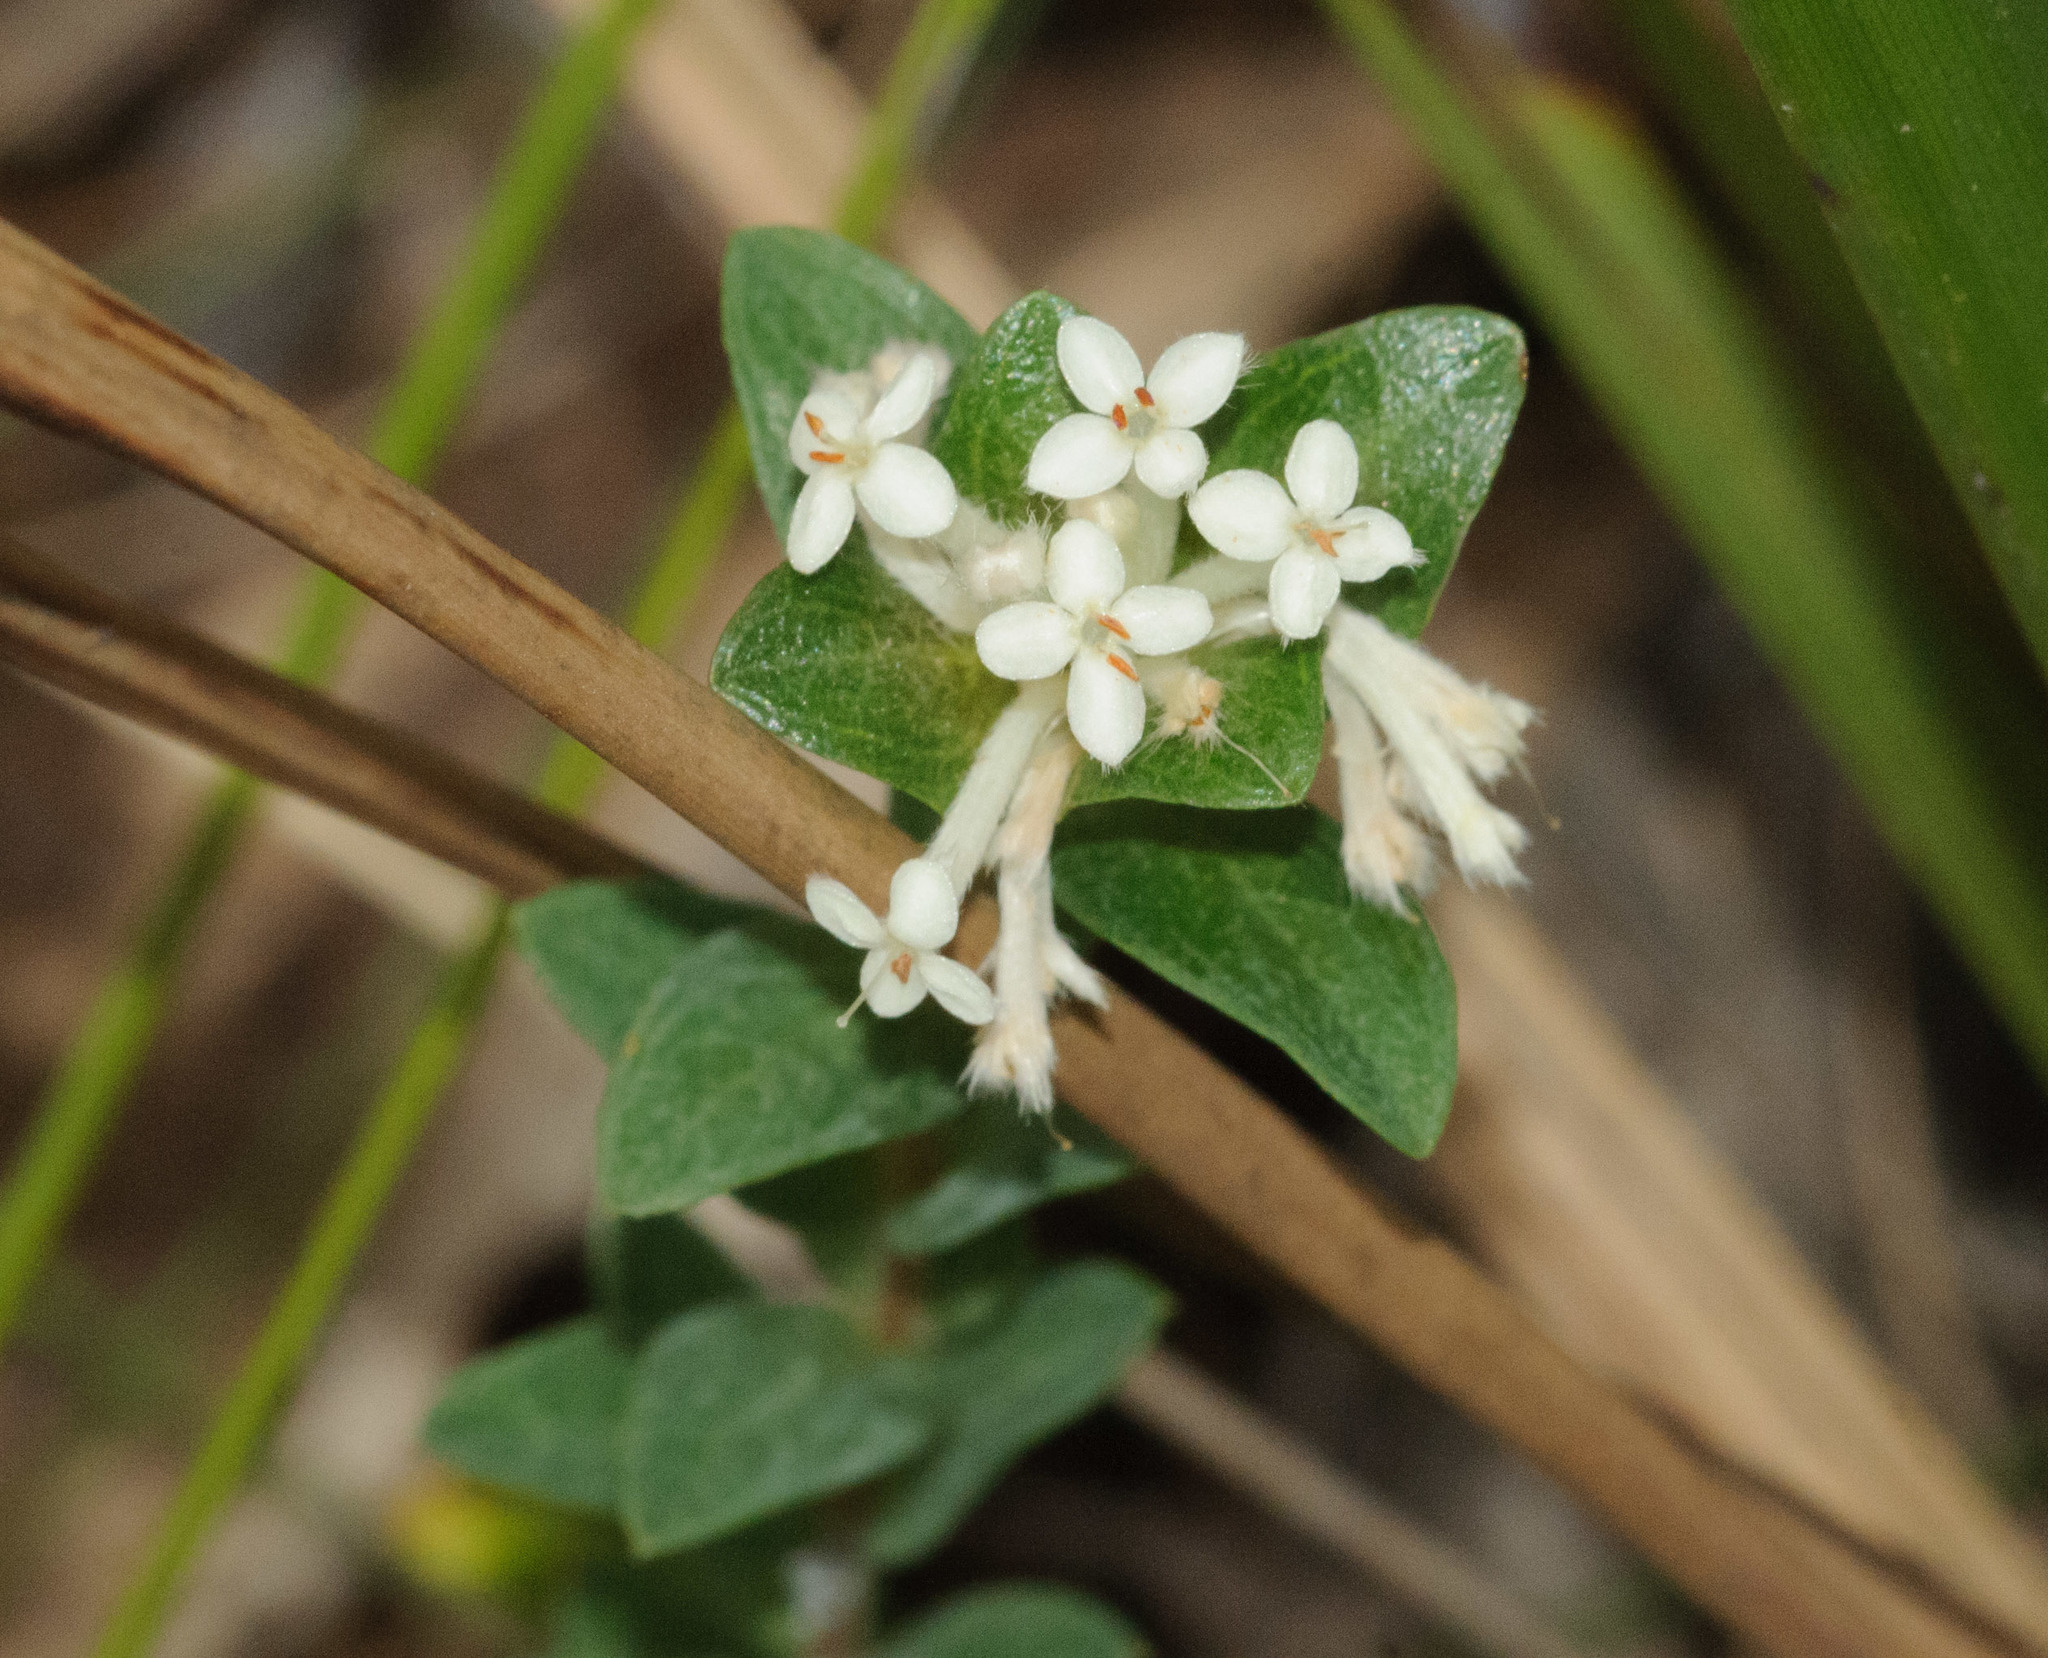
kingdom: Plantae
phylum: Tracheophyta
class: Magnoliopsida
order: Malvales
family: Thymelaeaceae
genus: Pimelea
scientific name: Pimelea humilis
